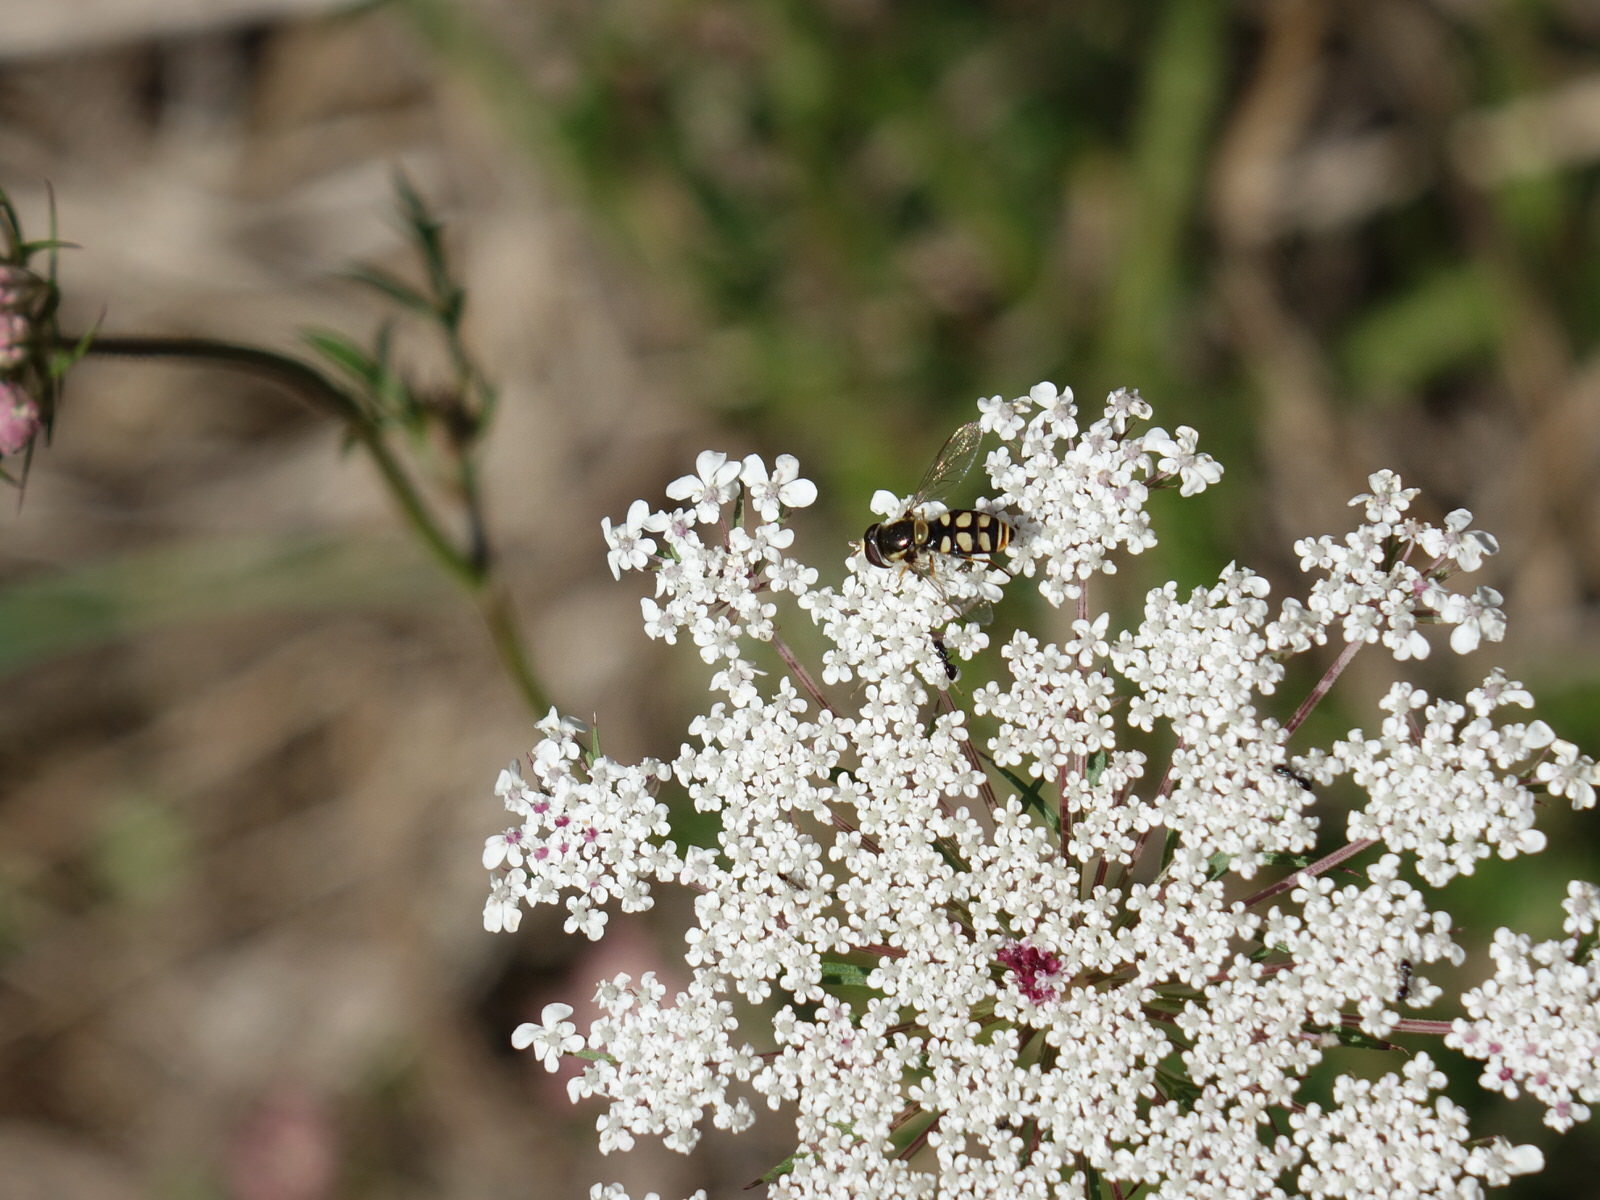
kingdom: Animalia
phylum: Arthropoda
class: Insecta
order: Diptera
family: Syrphidae
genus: Simosyrphus
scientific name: Simosyrphus grandicornis
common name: Hoverfly
